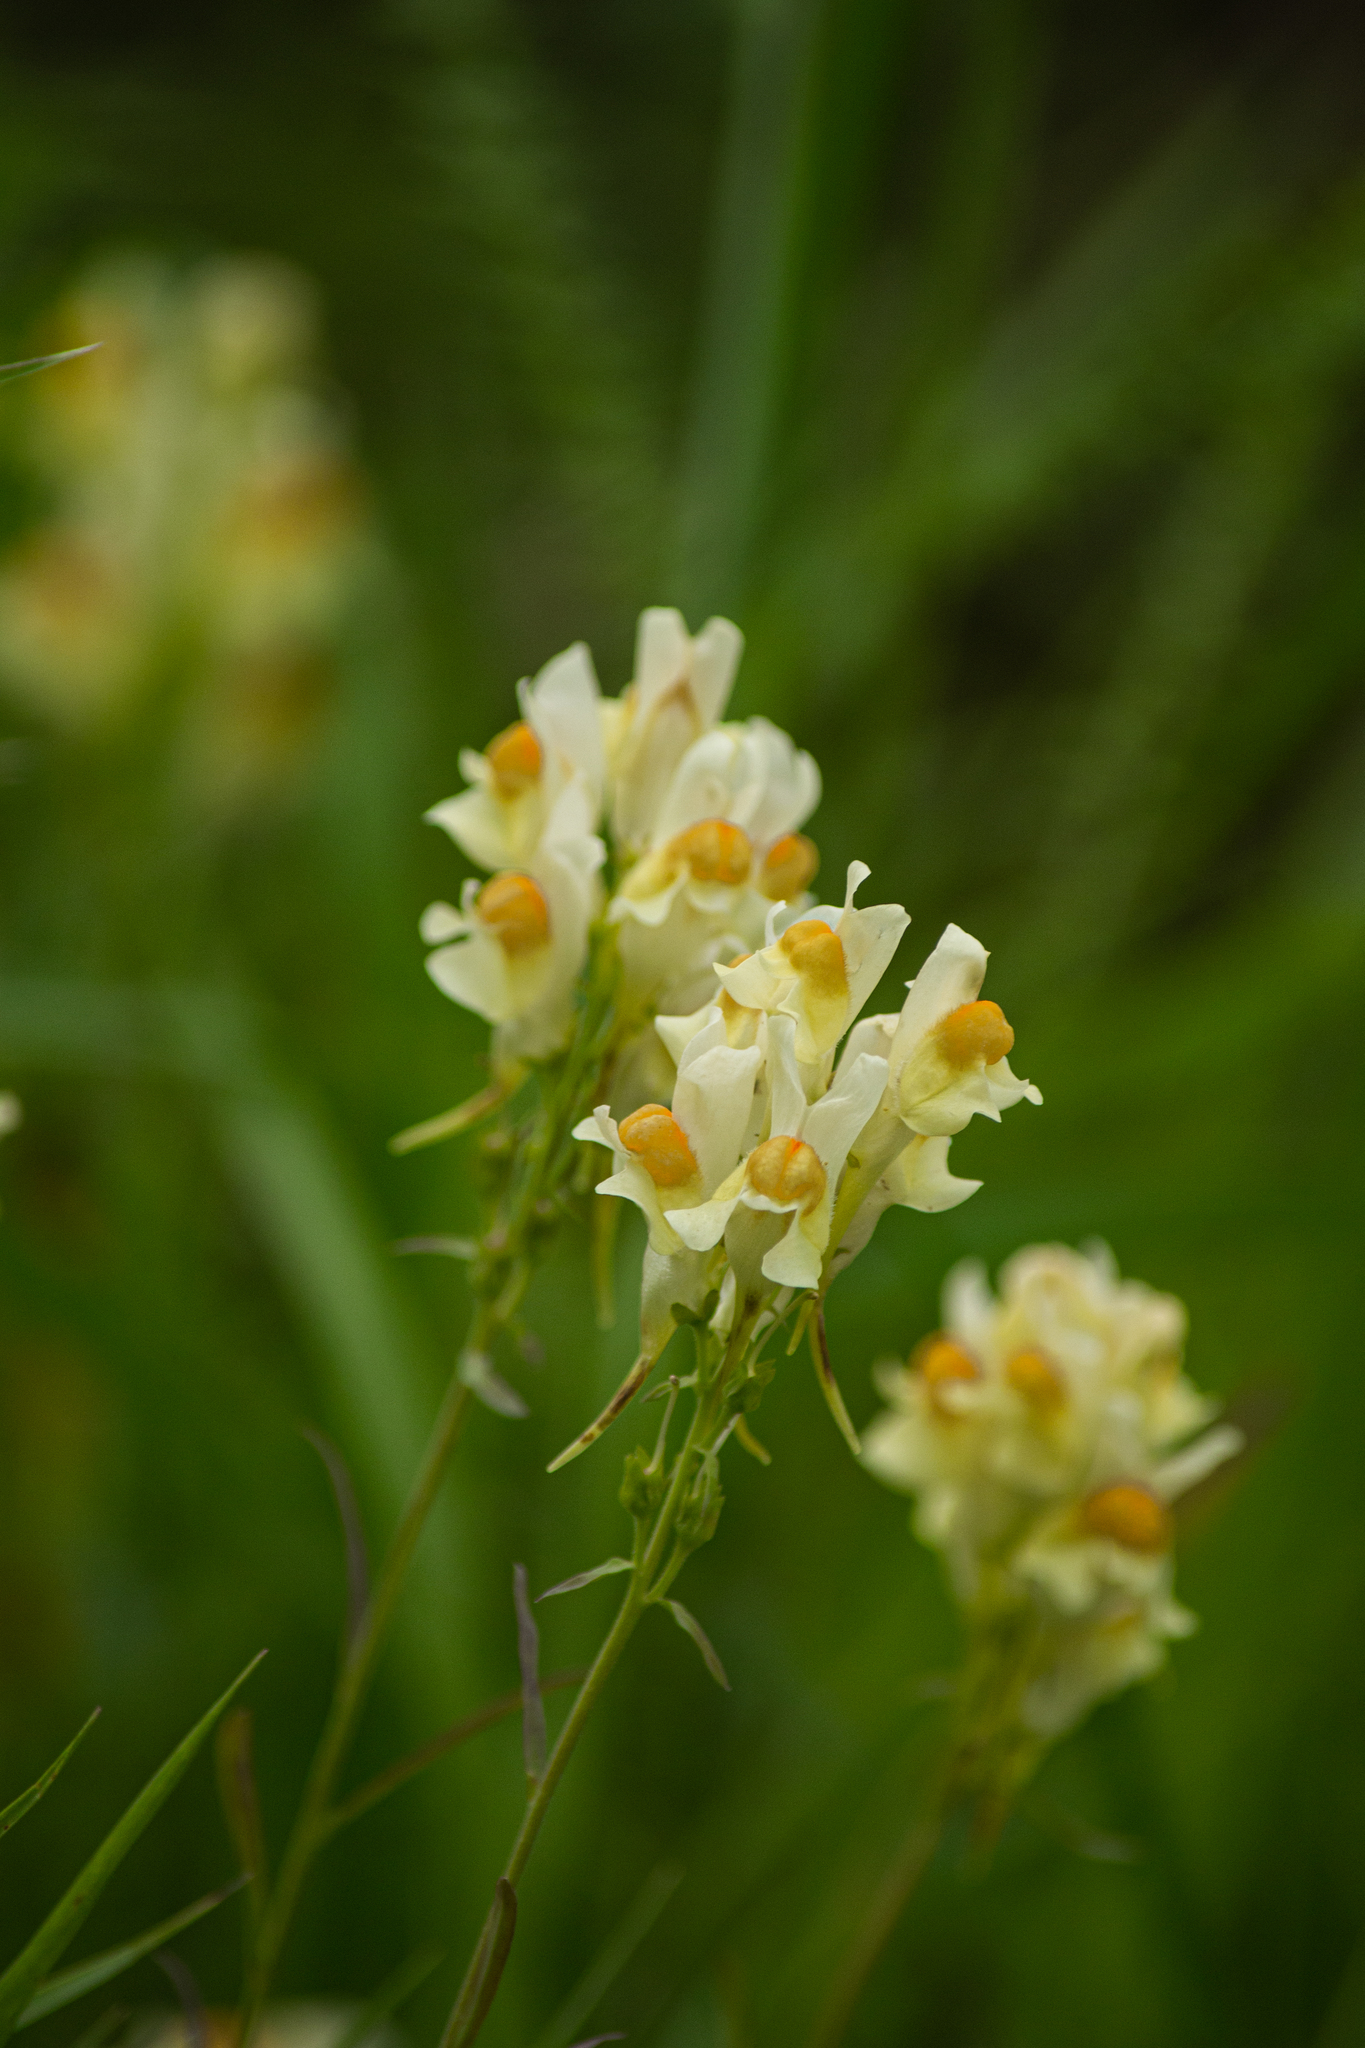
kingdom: Plantae
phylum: Tracheophyta
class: Magnoliopsida
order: Lamiales
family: Plantaginaceae
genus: Linaria
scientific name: Linaria vulgaris
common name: Butter and eggs
